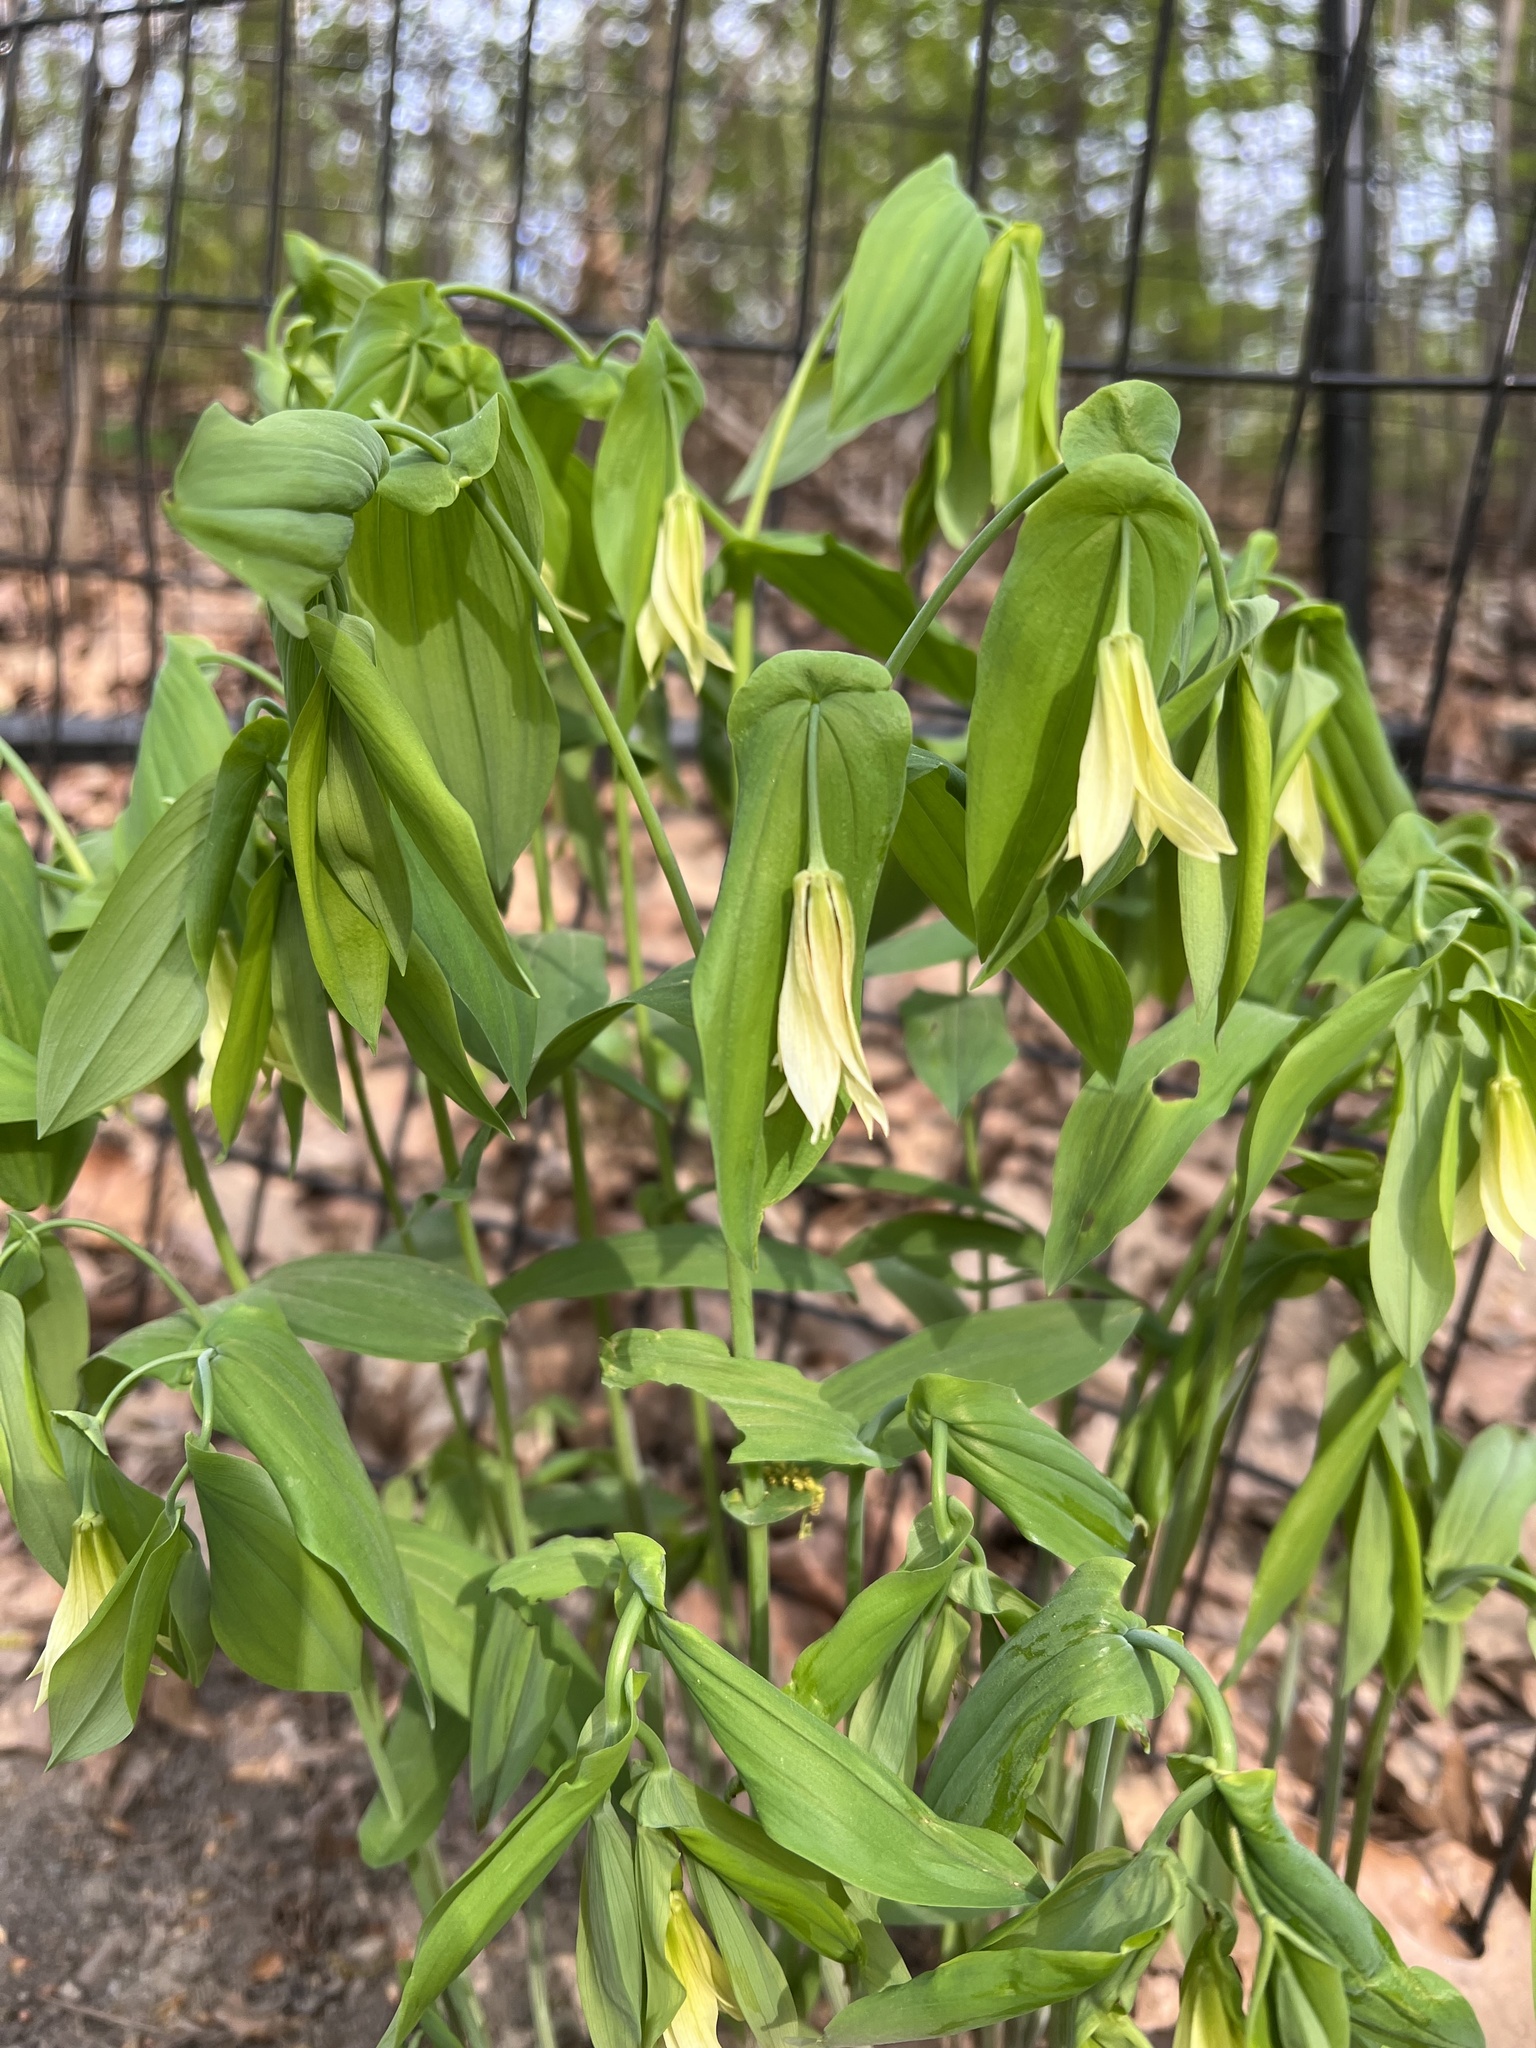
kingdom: Plantae
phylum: Tracheophyta
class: Liliopsida
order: Liliales
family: Colchicaceae
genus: Uvularia
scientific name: Uvularia grandiflora
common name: Bellwort
